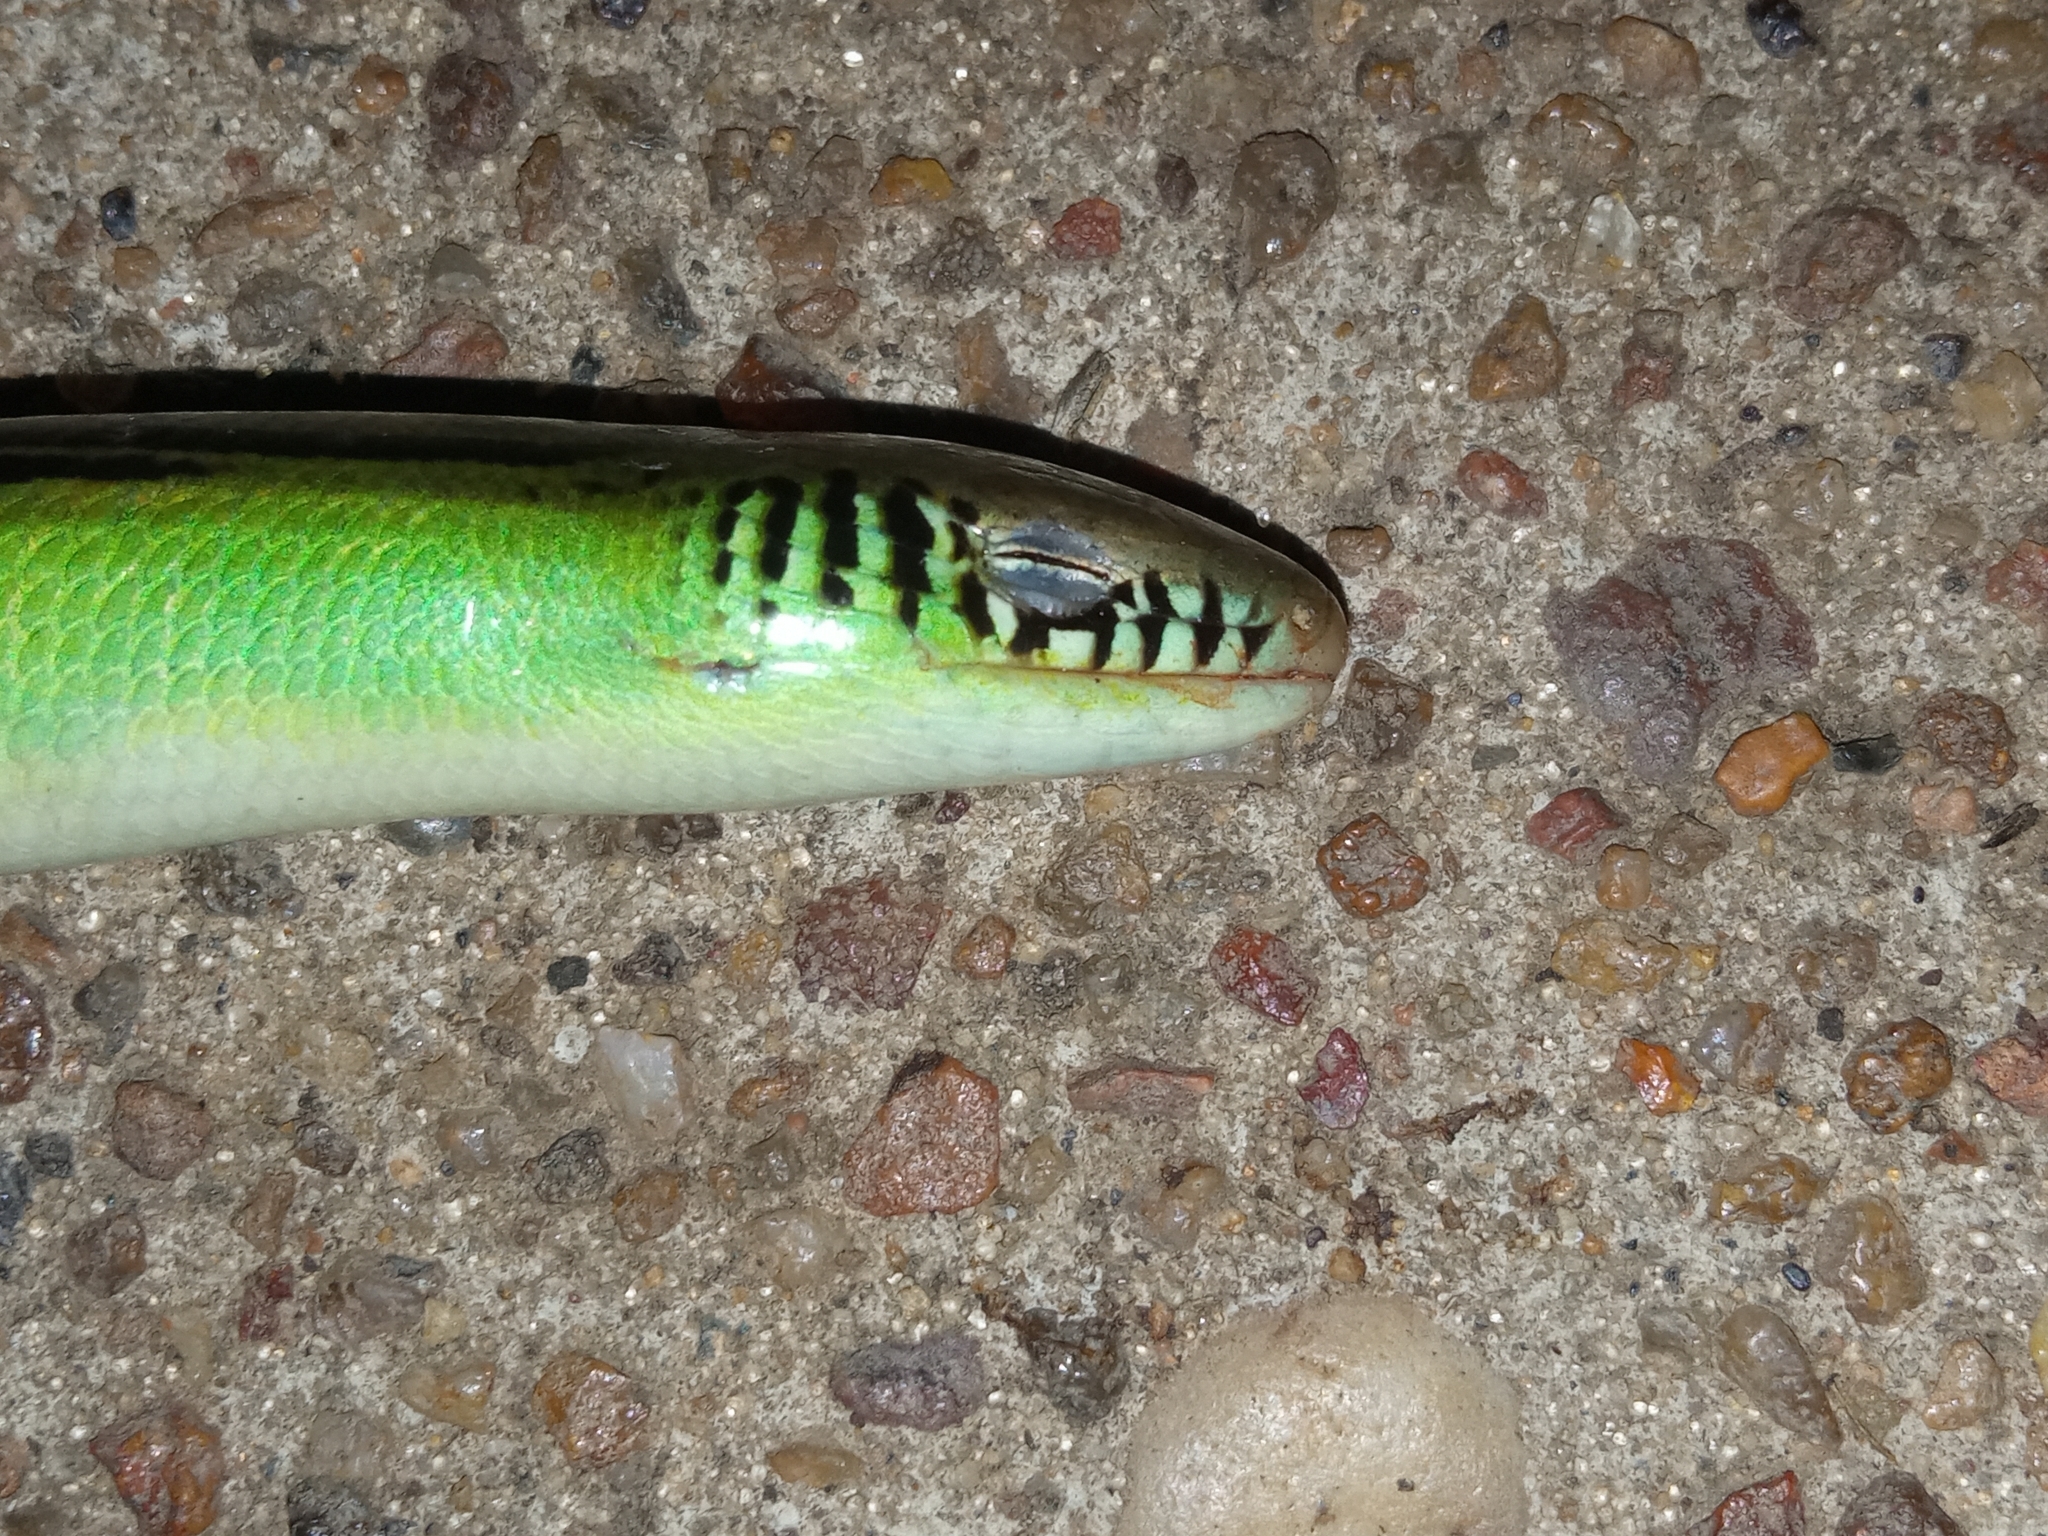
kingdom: Animalia
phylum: Chordata
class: Squamata
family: Diploglossidae
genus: Ophiodes
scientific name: Ophiodes striatus
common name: Striped worm lizard
